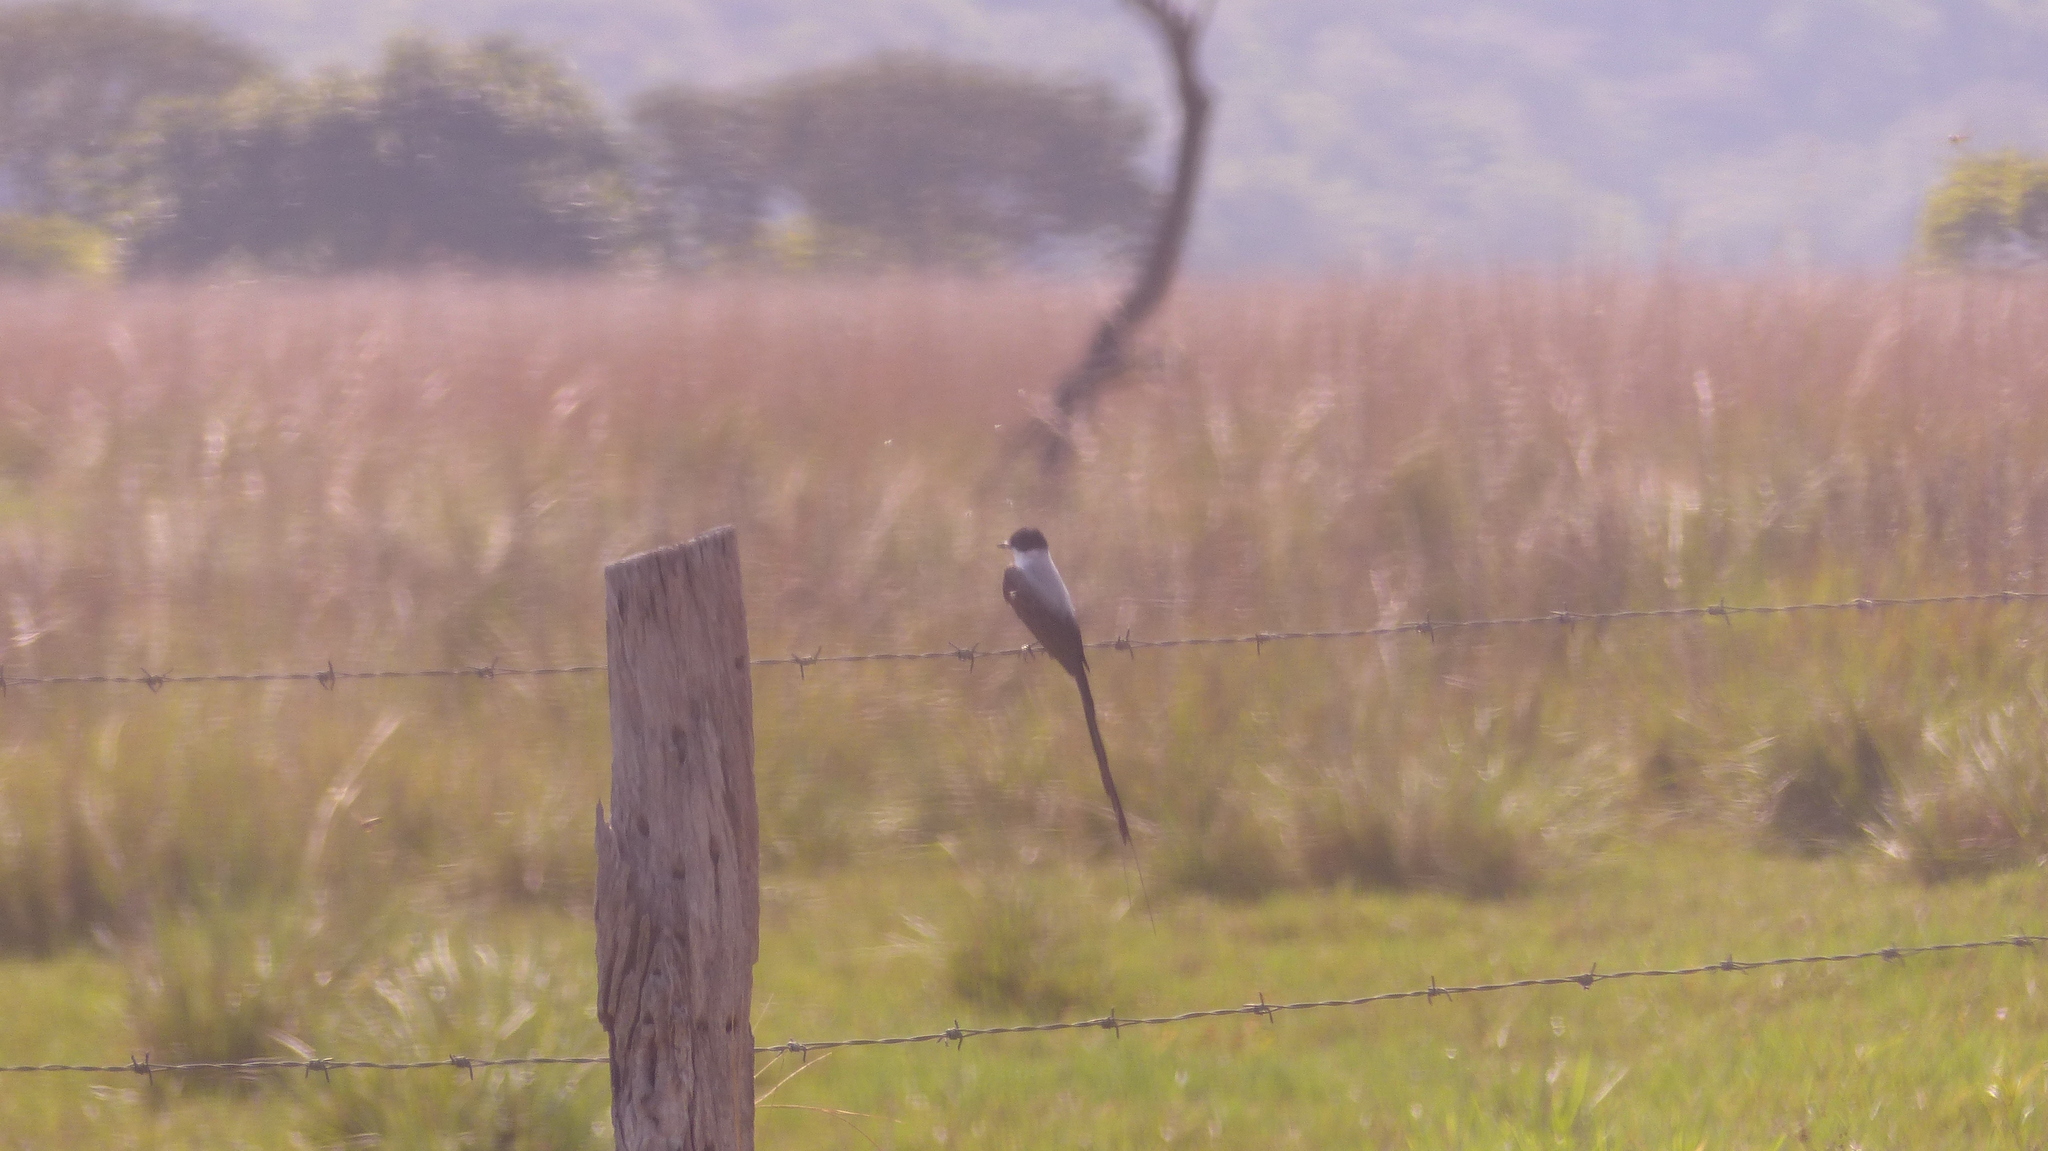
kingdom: Animalia
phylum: Chordata
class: Aves
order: Passeriformes
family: Tyrannidae
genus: Tyrannus
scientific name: Tyrannus savana
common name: Fork-tailed flycatcher
